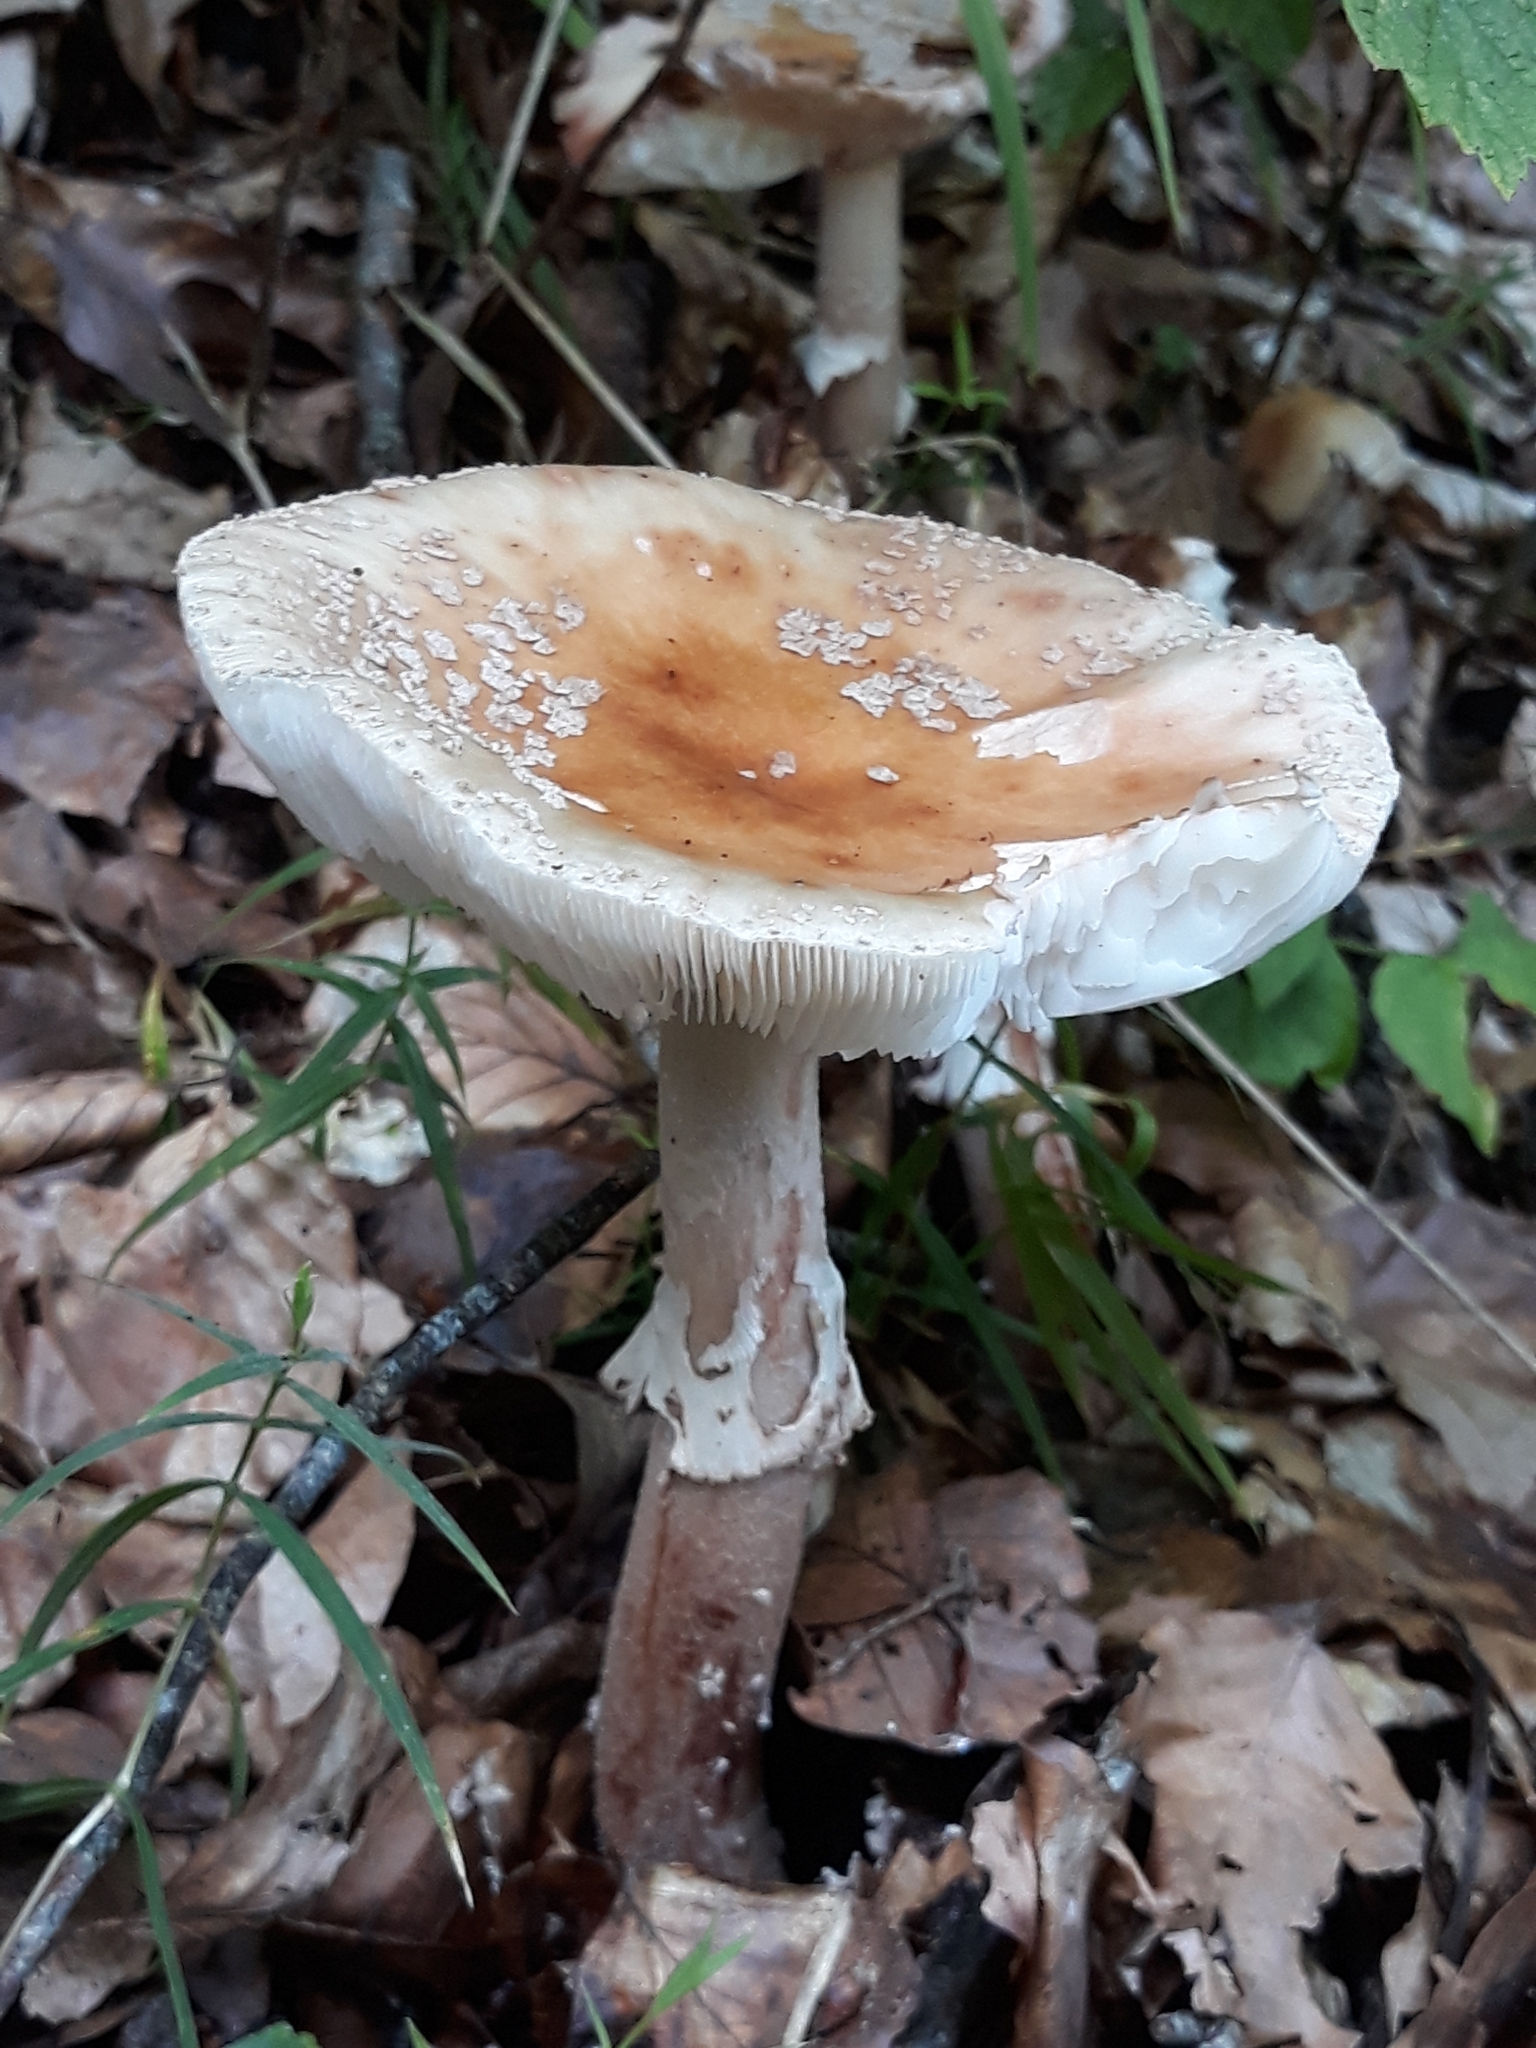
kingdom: Fungi
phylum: Basidiomycota
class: Agaricomycetes
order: Agaricales
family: Amanitaceae
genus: Amanita
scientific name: Amanita rubescens
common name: Blusher
